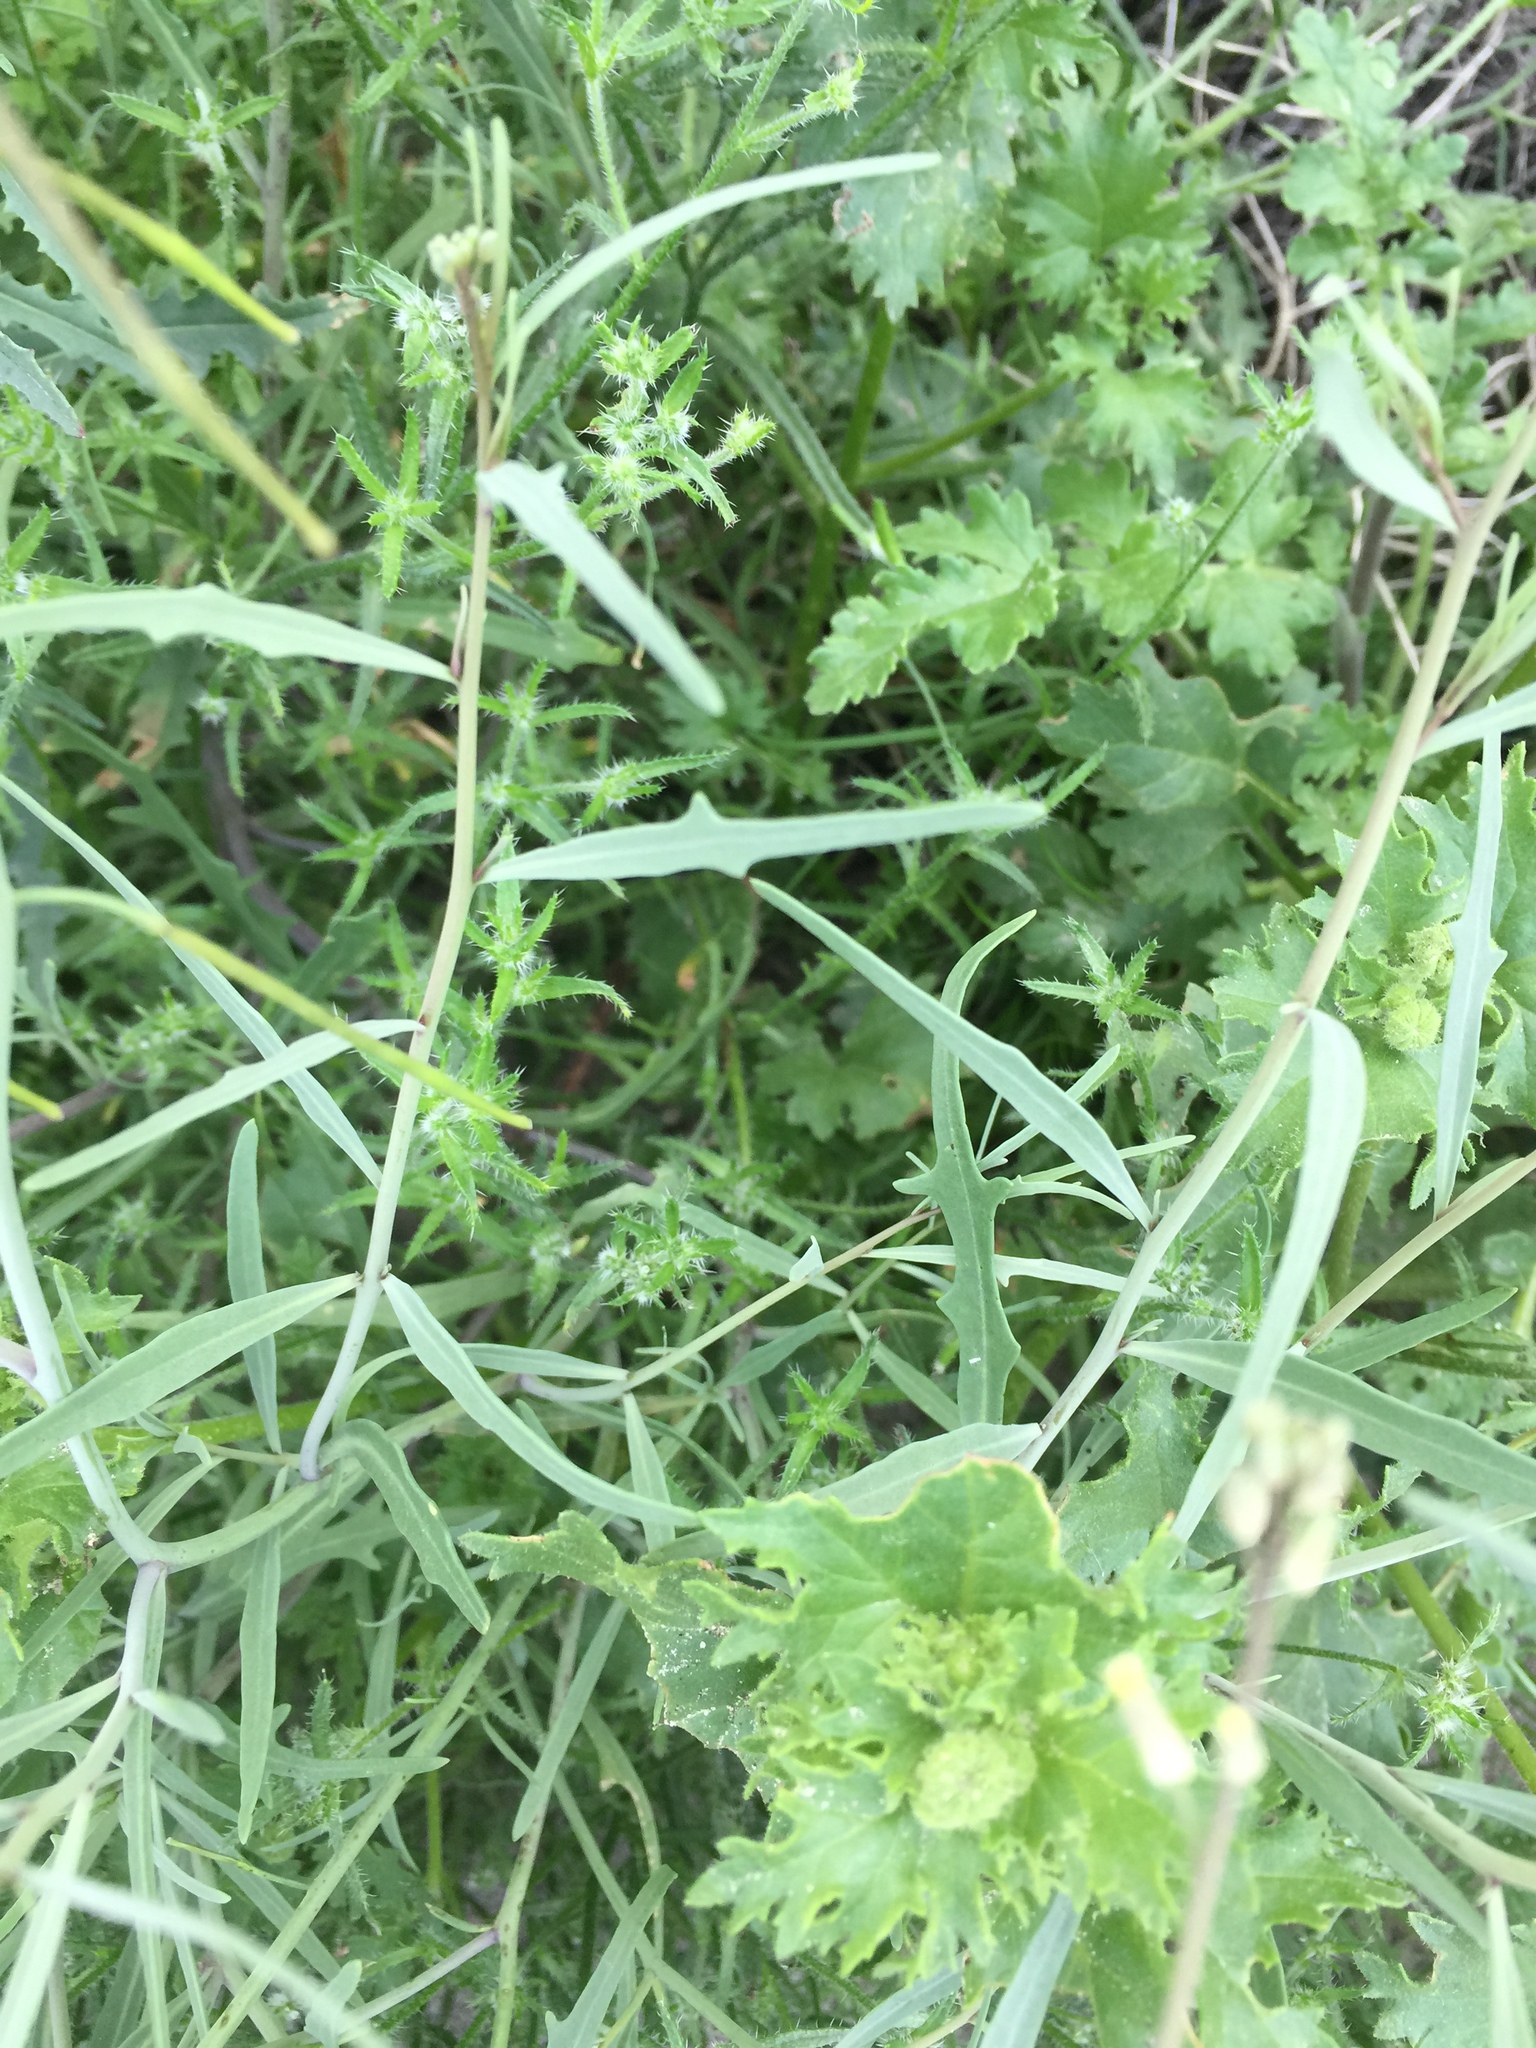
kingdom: Plantae
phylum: Tracheophyta
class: Magnoliopsida
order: Brassicales
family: Brassicaceae
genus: Streptanthus
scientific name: Streptanthus longirostris
